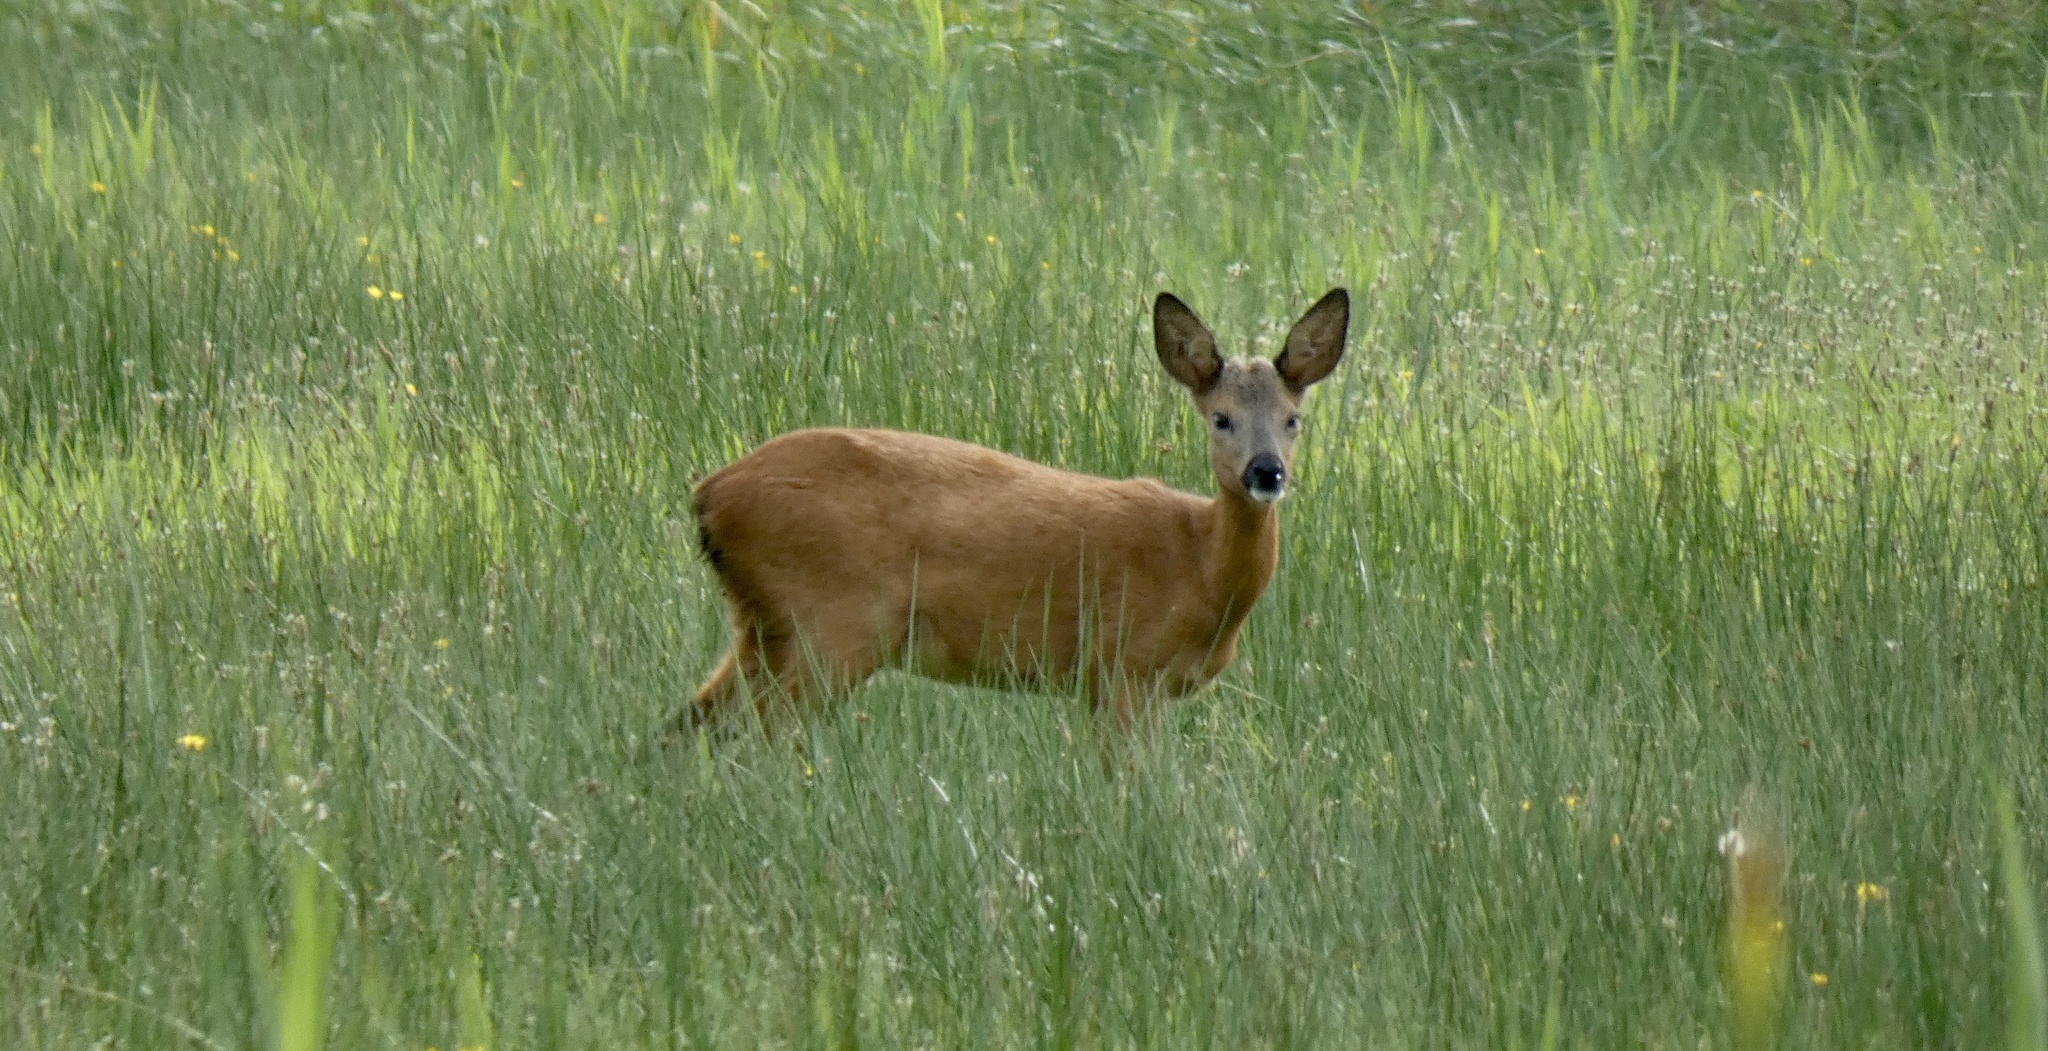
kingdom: Animalia
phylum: Chordata
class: Mammalia
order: Artiodactyla
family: Cervidae
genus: Capreolus
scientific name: Capreolus capreolus
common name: Western roe deer
